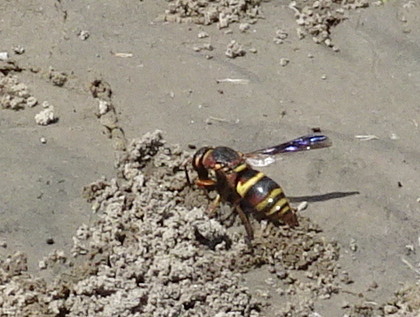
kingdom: Animalia
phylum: Arthropoda
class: Insecta
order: Hymenoptera
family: Eumenidae
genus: Euodynerus
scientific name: Euodynerus hidalgo
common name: Wasp
